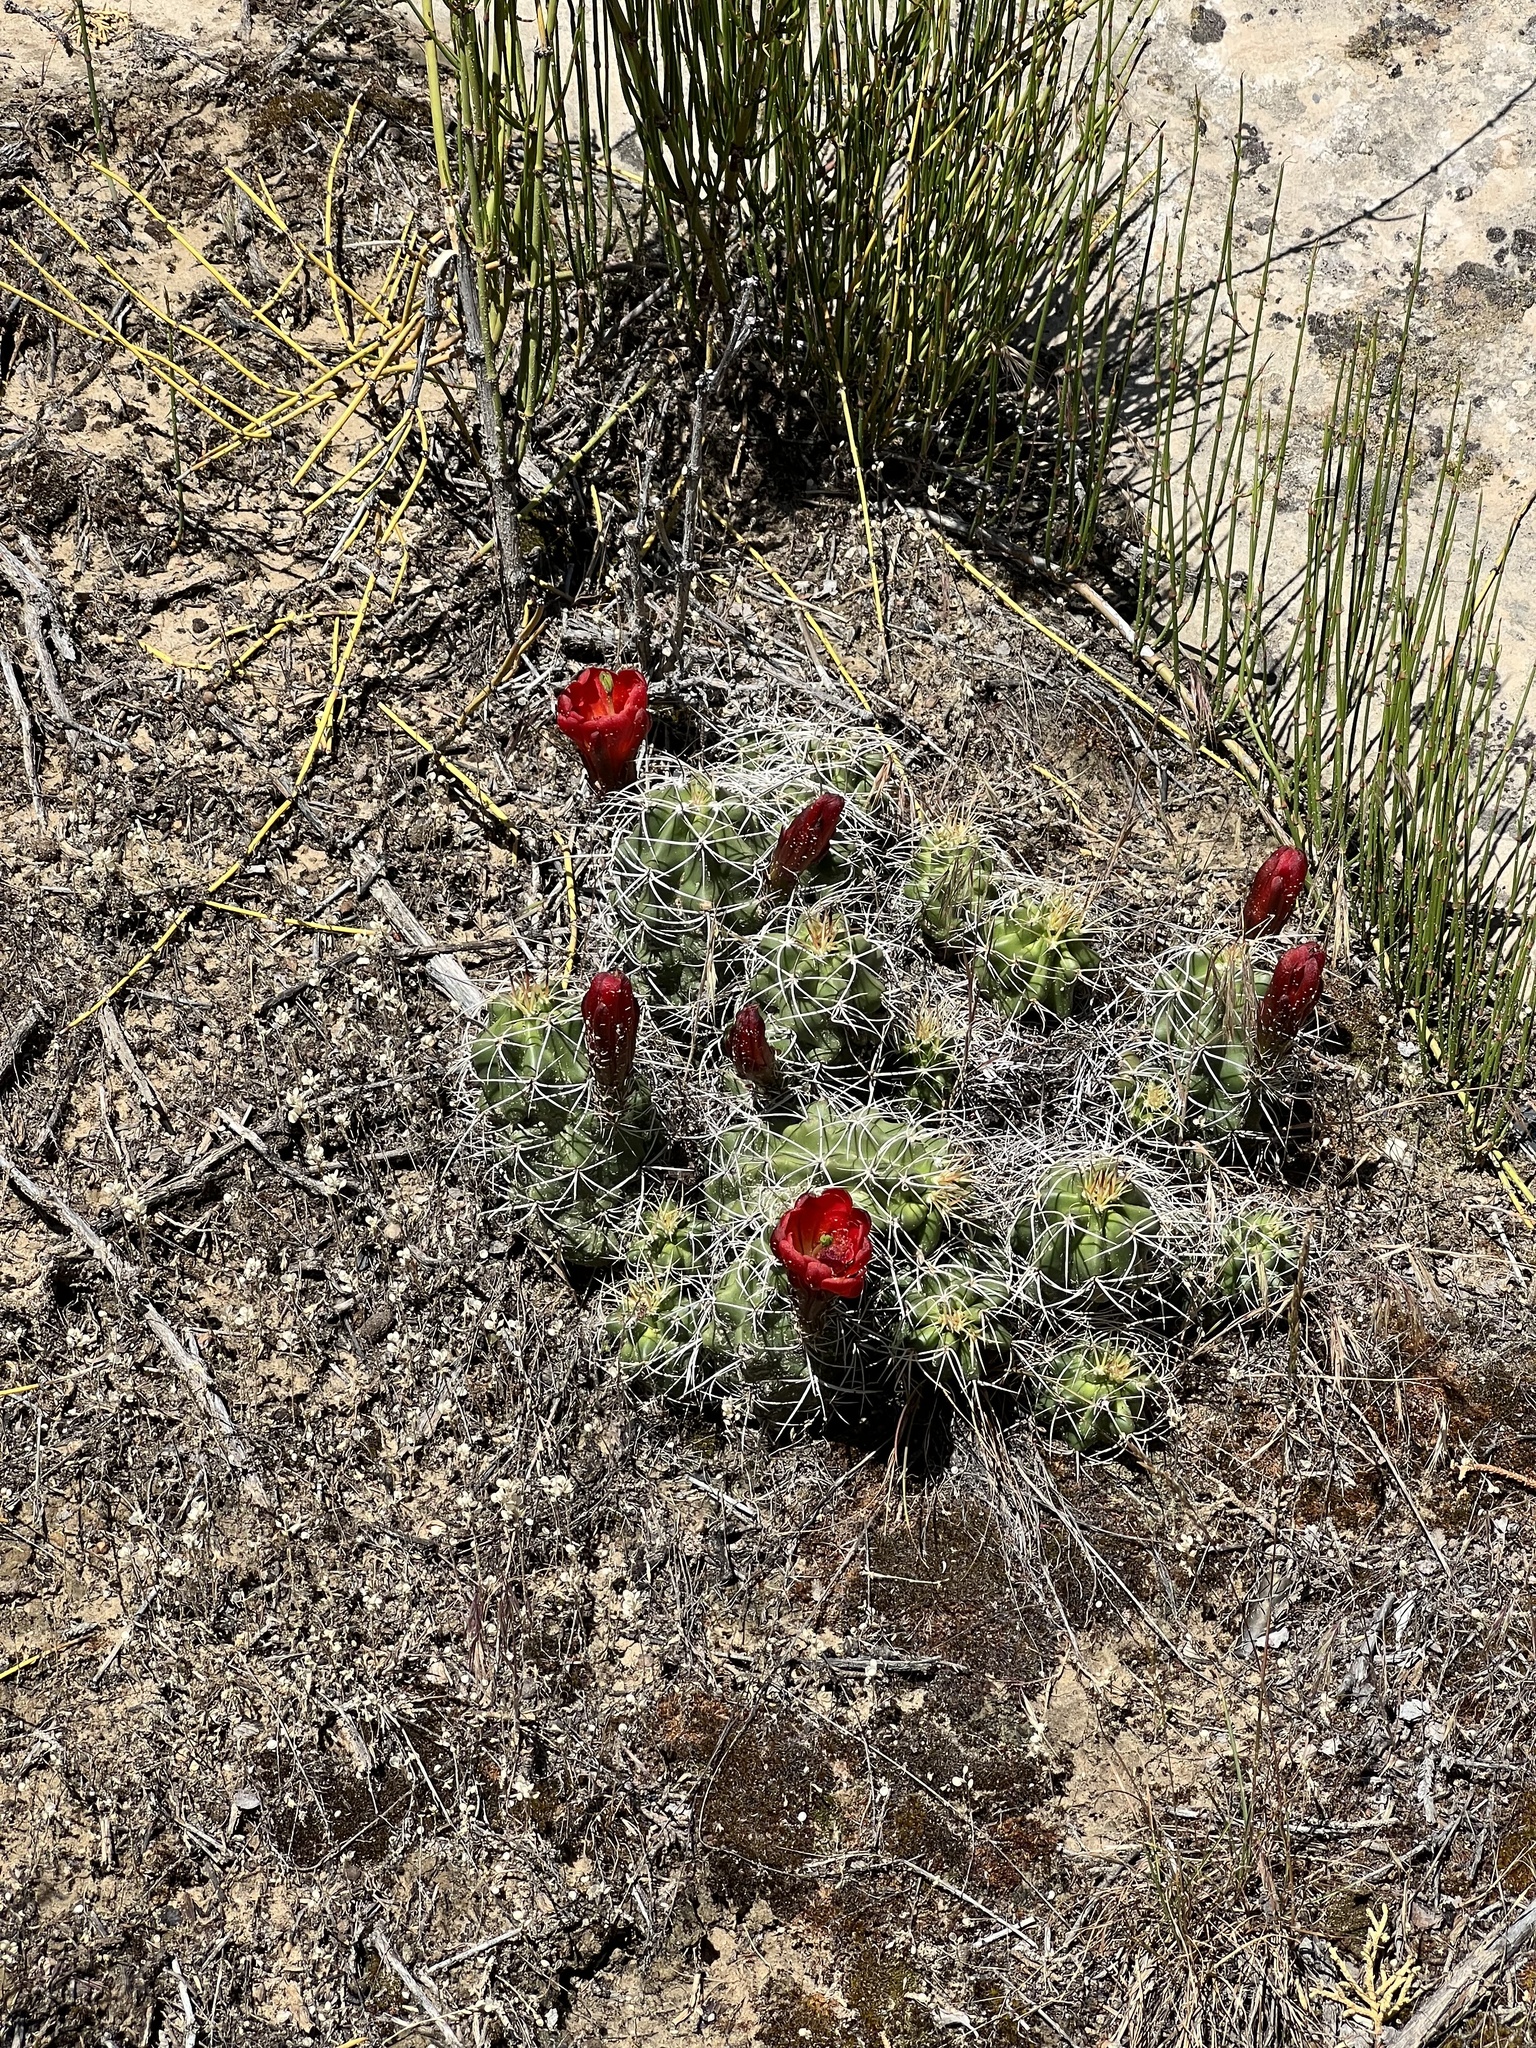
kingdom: Plantae
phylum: Tracheophyta
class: Magnoliopsida
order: Caryophyllales
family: Cactaceae
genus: Echinocereus
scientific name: Echinocereus triglochidiatus
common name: Claretcup hedgehog
